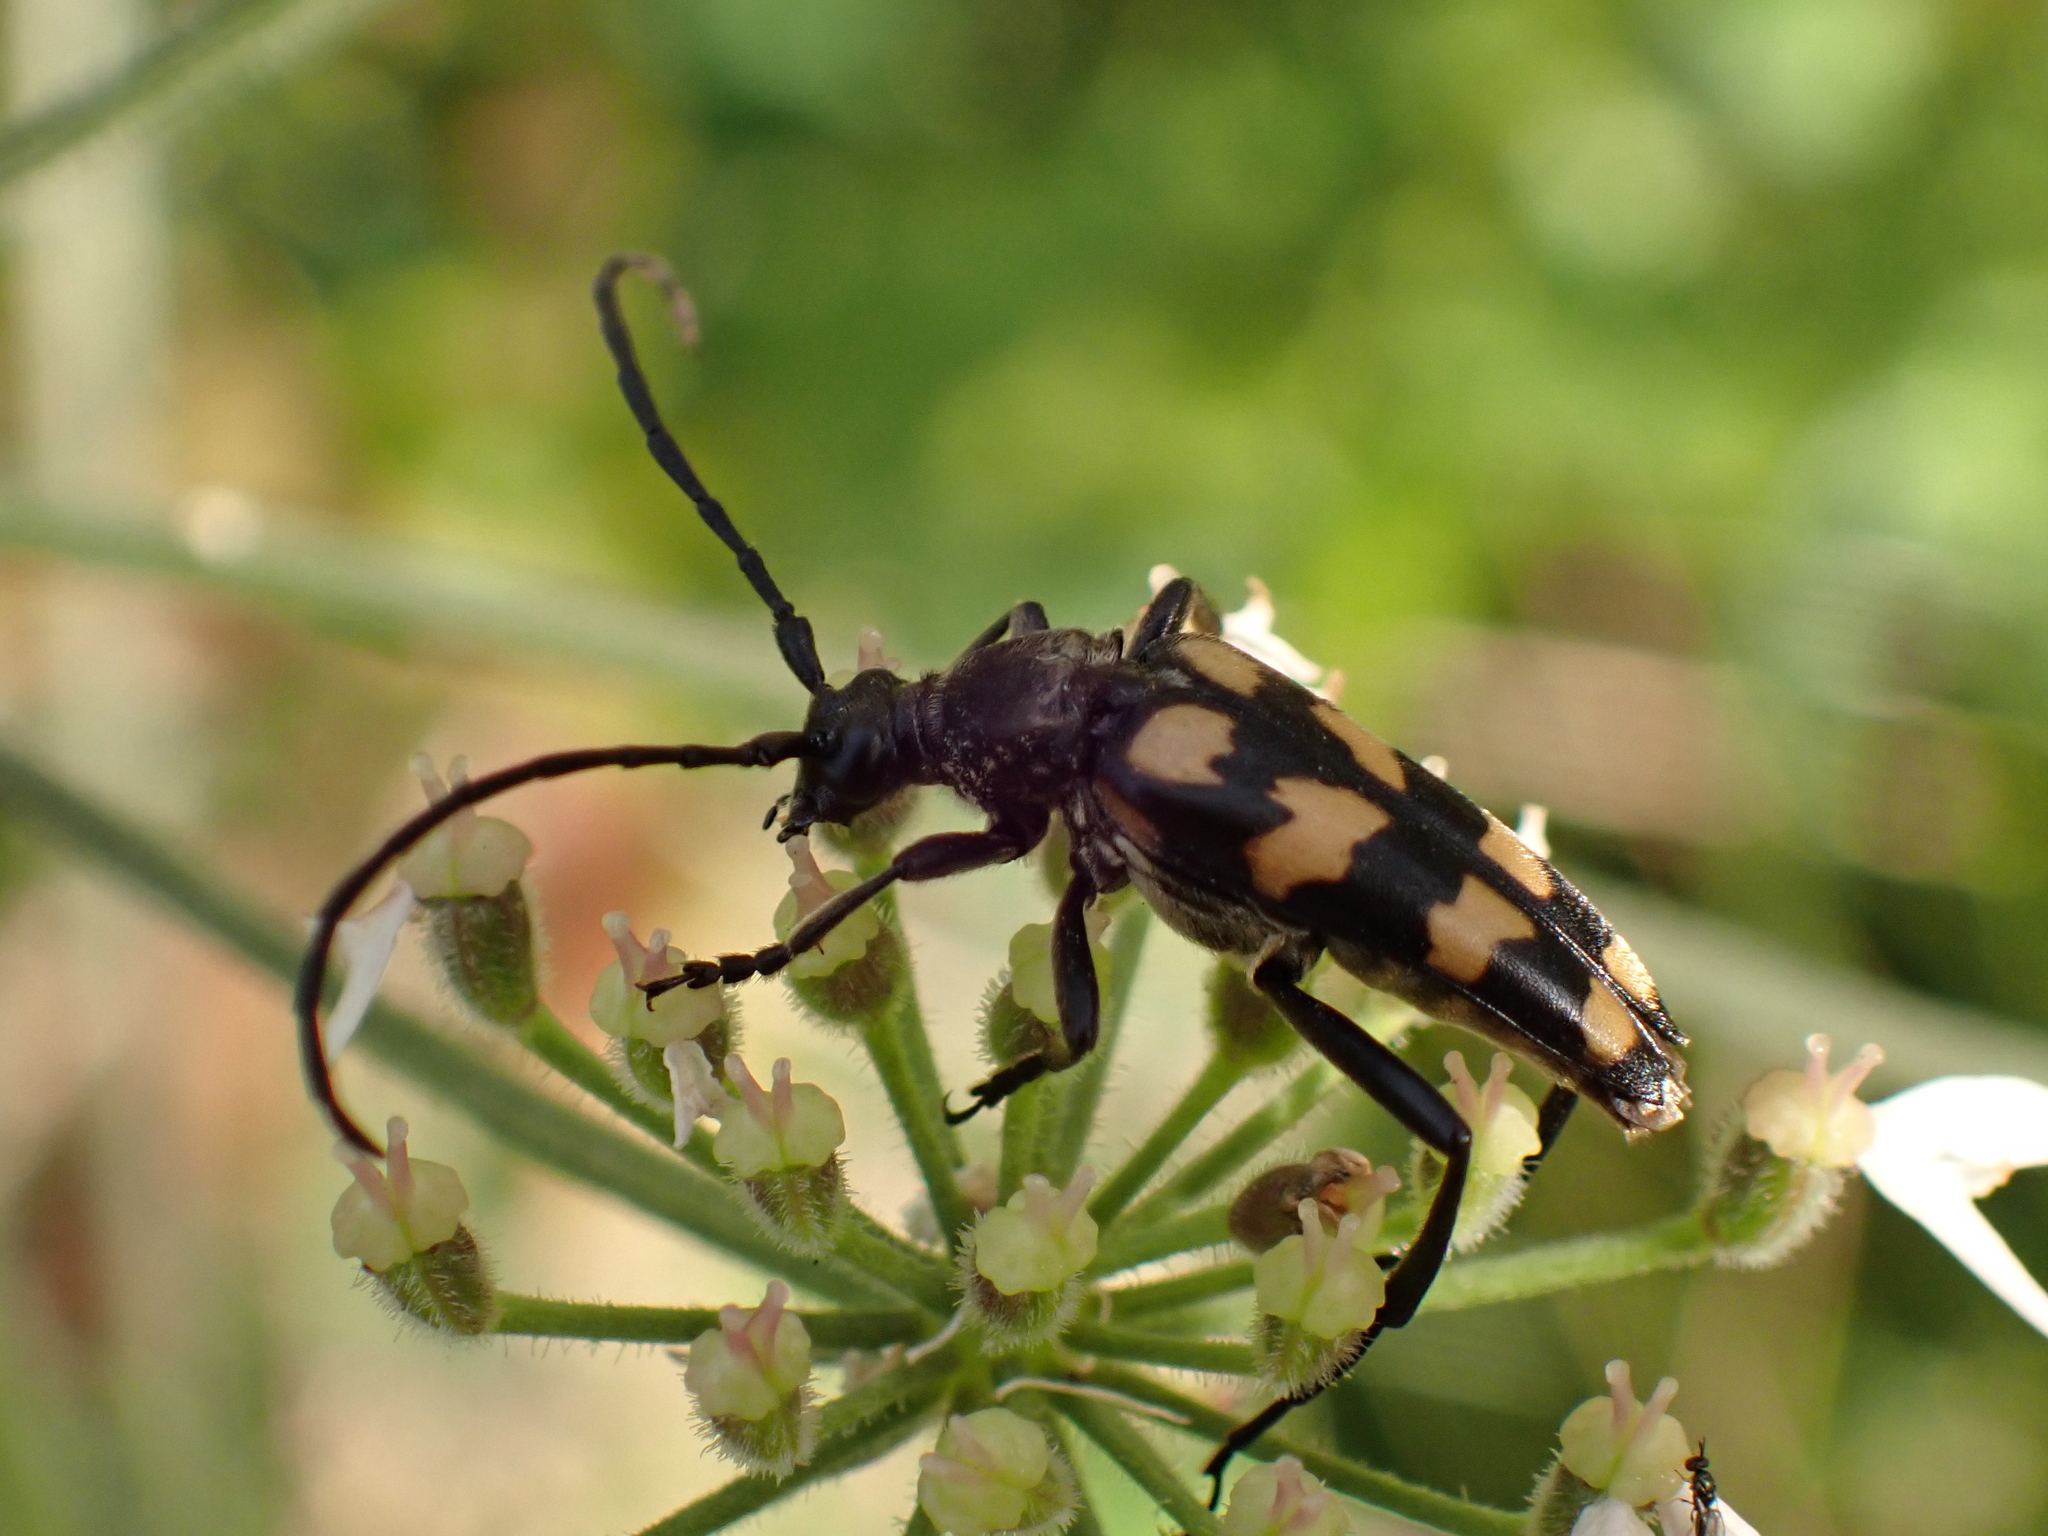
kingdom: Animalia
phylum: Arthropoda
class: Insecta
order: Coleoptera
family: Cerambycidae
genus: Leptura
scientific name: Leptura quadrifasciata
